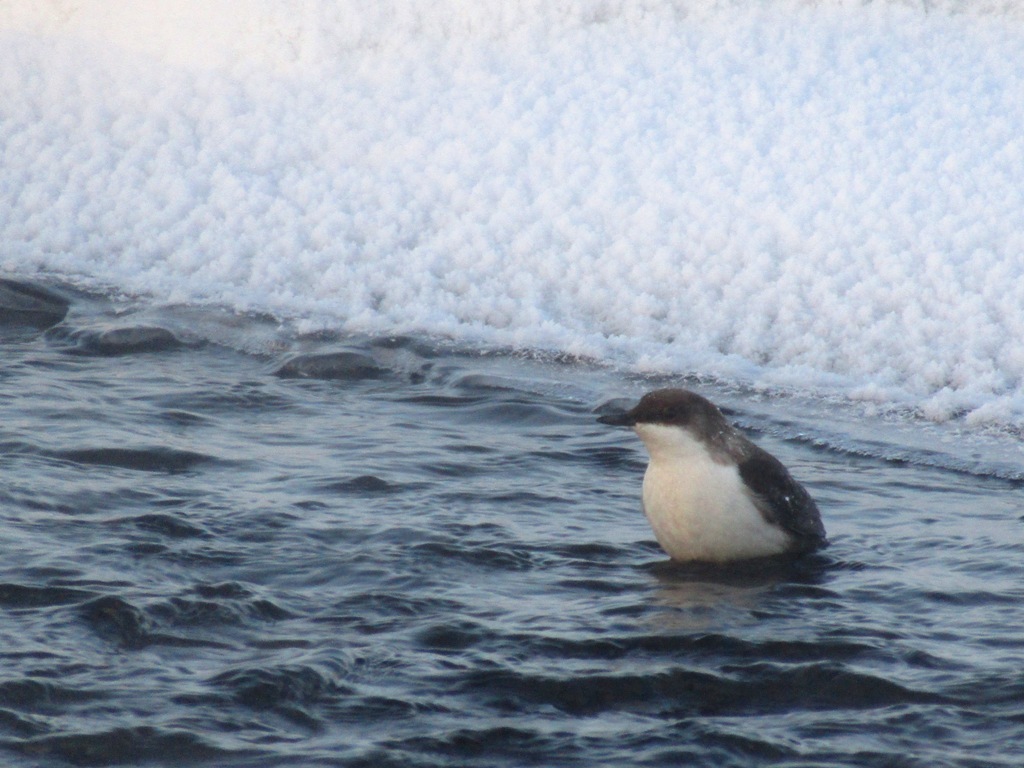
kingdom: Animalia
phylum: Chordata
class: Aves
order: Passeriformes
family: Cinclidae
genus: Cinclus
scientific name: Cinclus cinclus
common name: White-throated dipper
